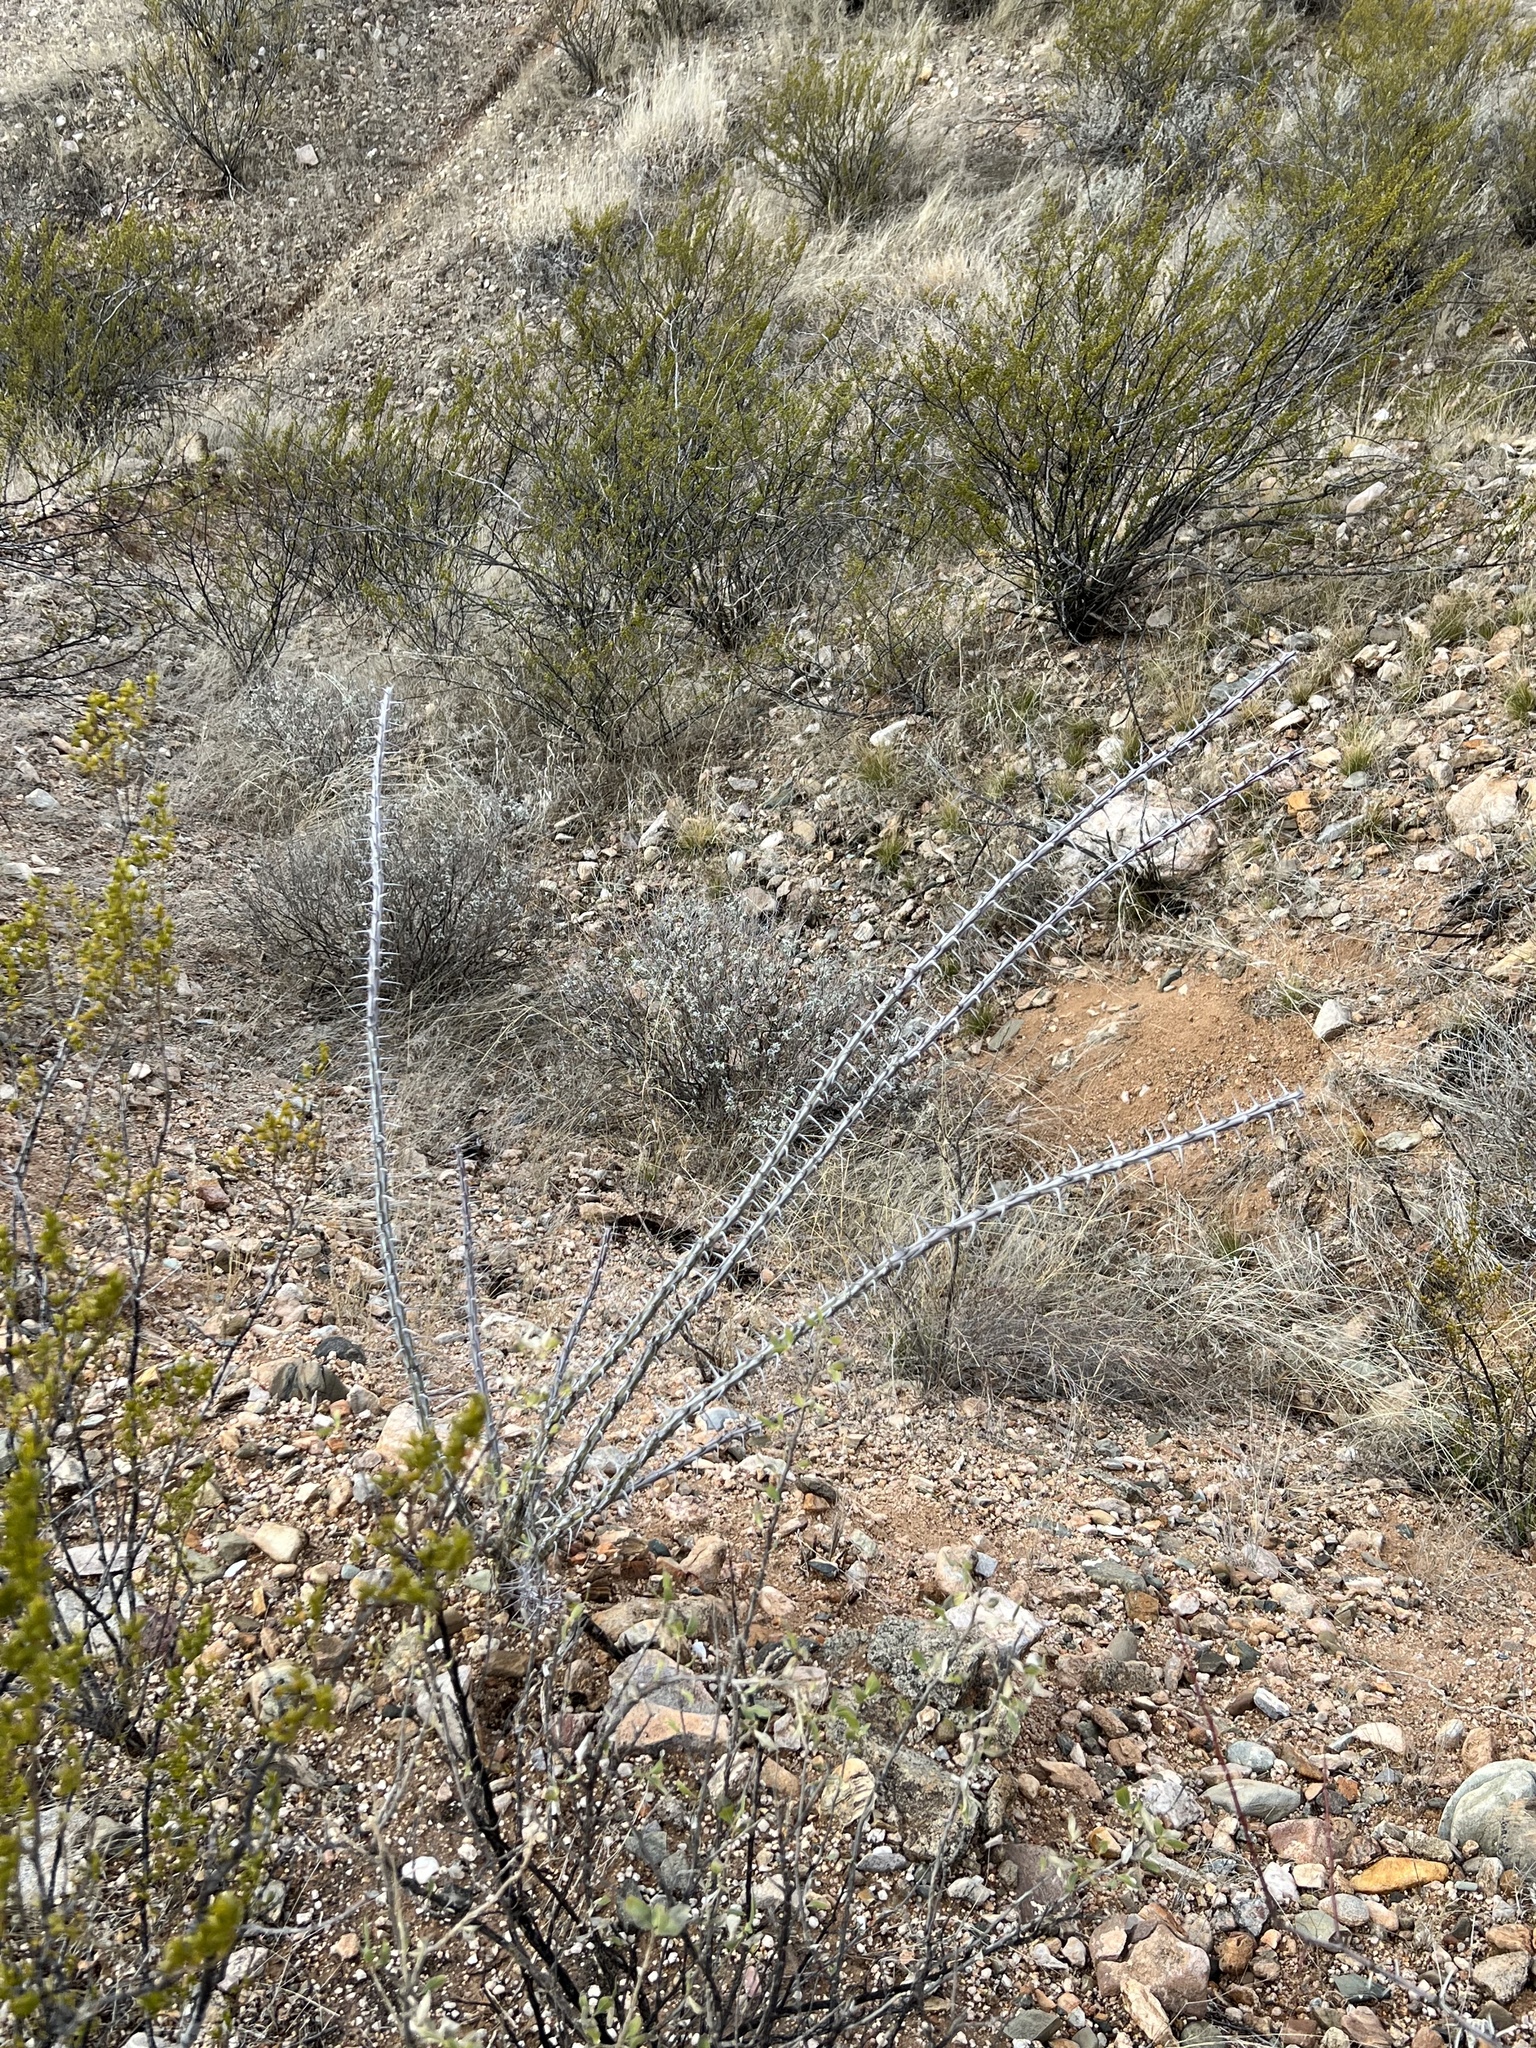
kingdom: Plantae
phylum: Tracheophyta
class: Magnoliopsida
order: Ericales
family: Fouquieriaceae
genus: Fouquieria
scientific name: Fouquieria splendens
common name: Vine-cactus
